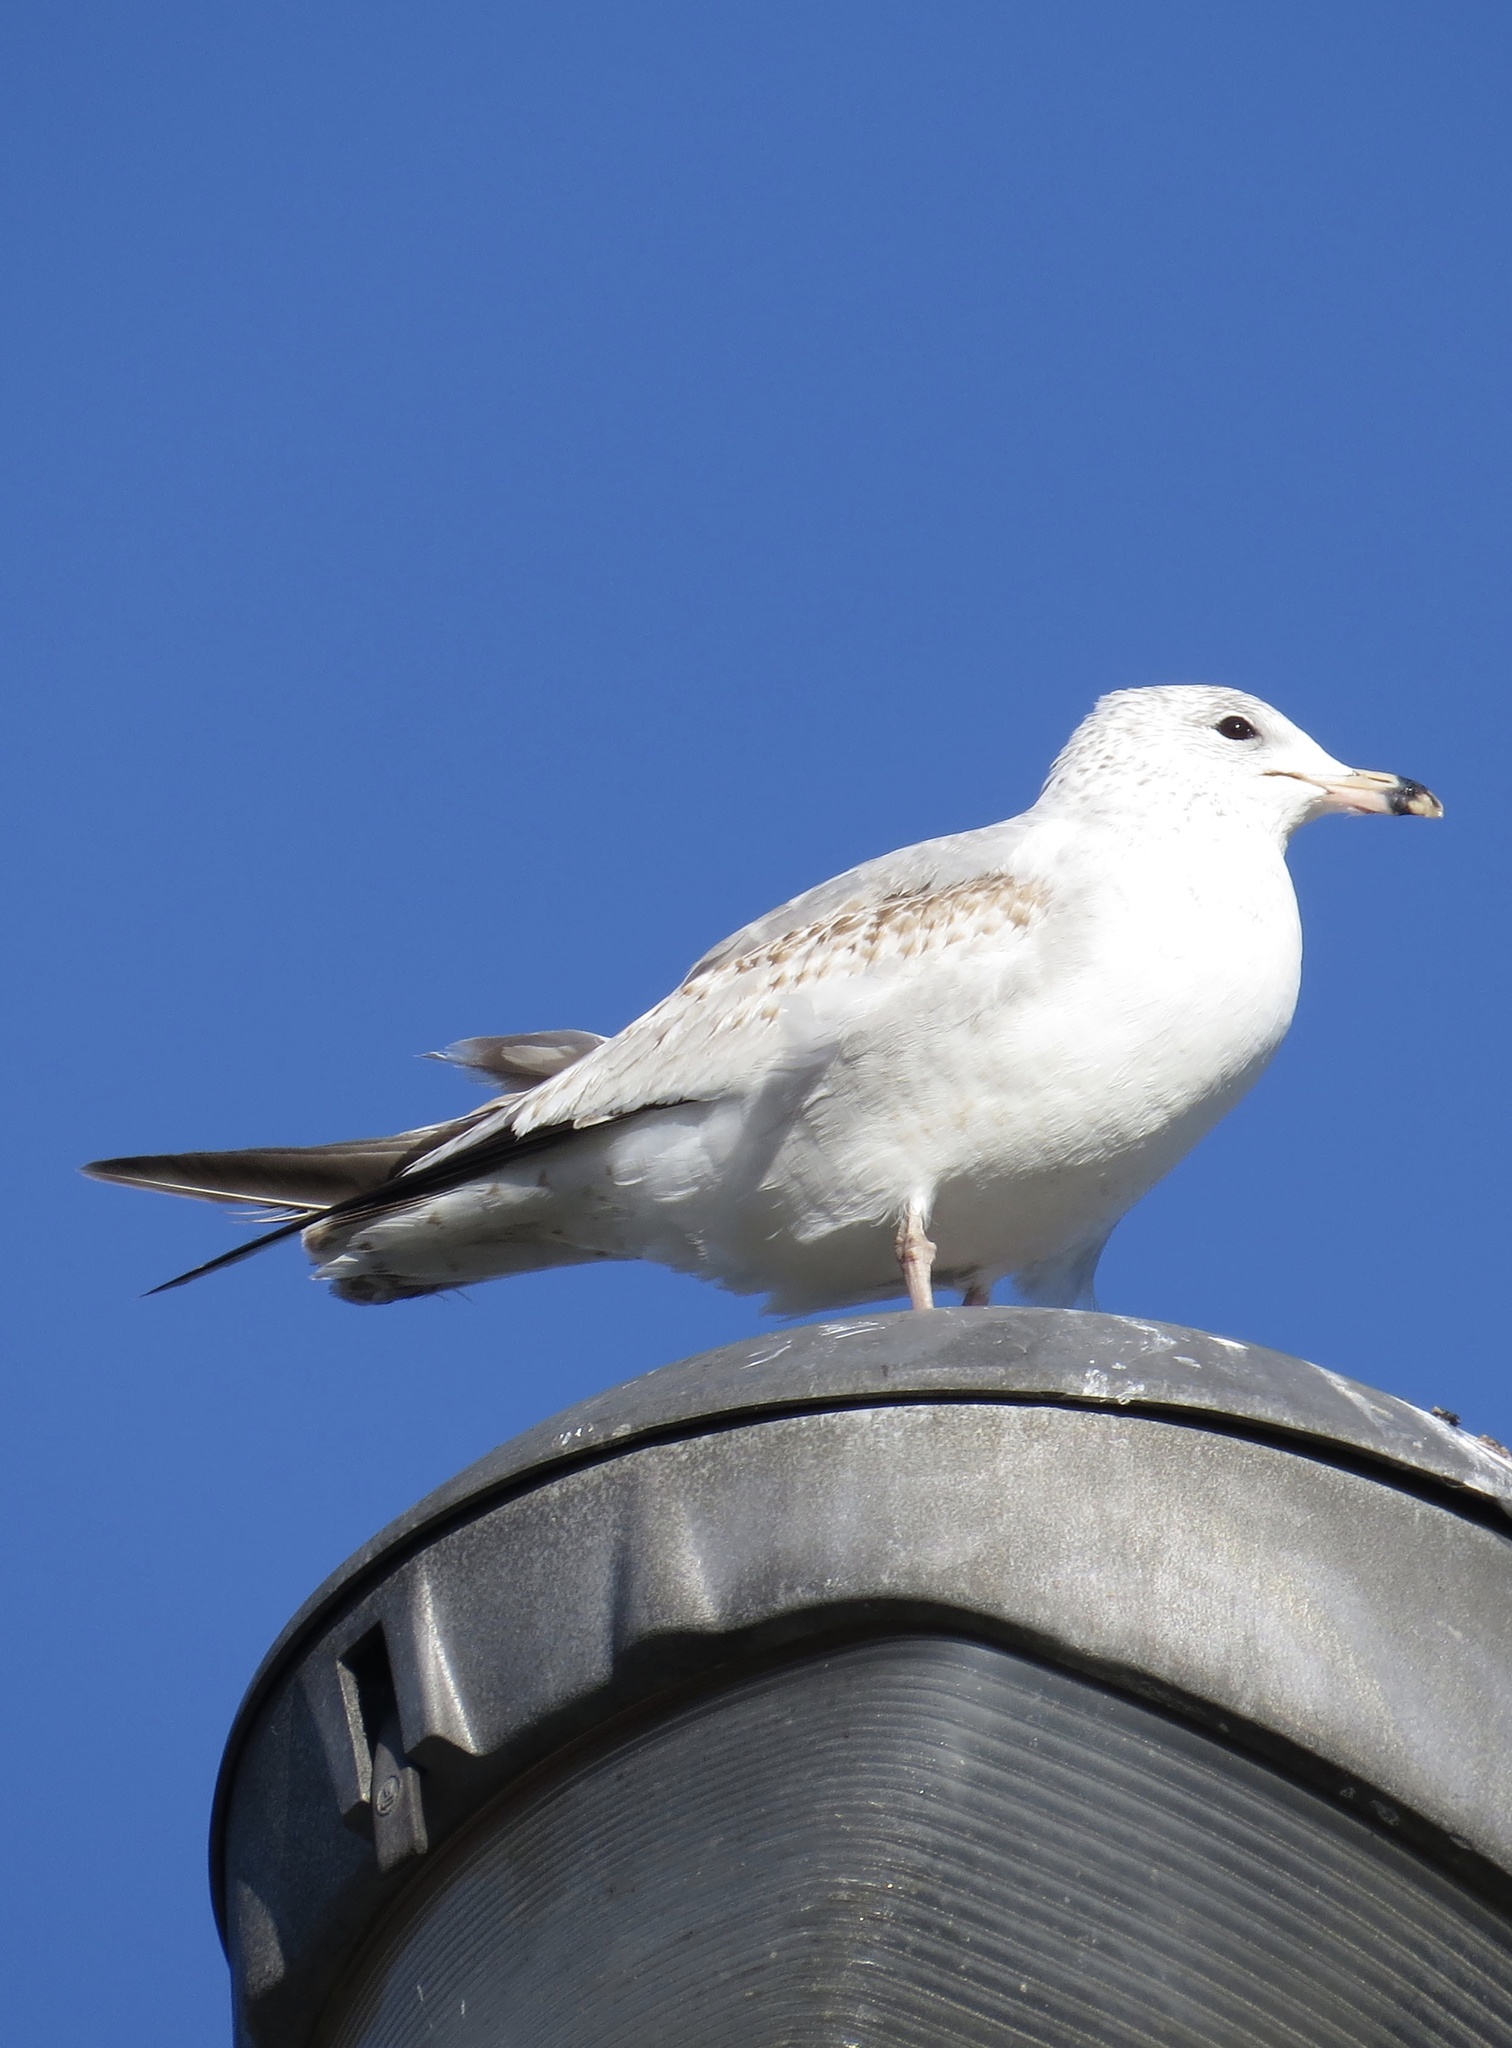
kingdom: Animalia
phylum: Chordata
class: Aves
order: Charadriiformes
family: Laridae
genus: Larus
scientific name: Larus delawarensis
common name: Ring-billed gull
